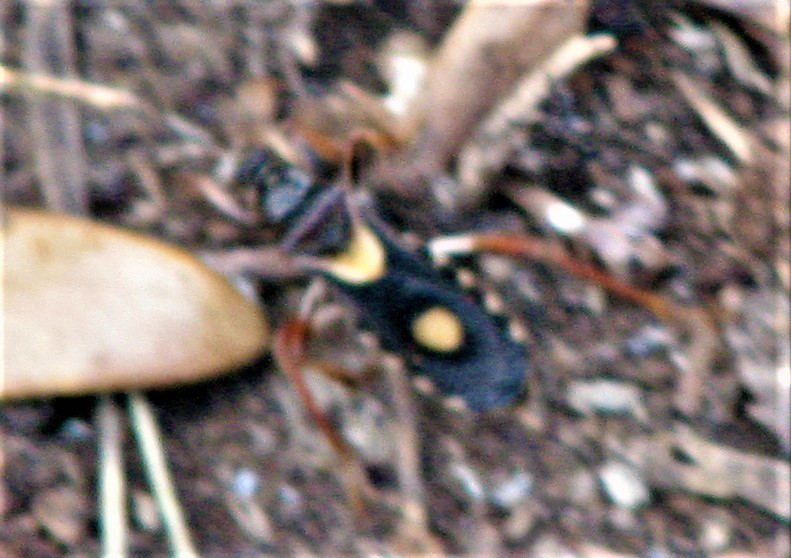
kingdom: Animalia
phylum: Arthropoda
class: Insecta
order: Hemiptera
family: Reduviidae
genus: Rasahus
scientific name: Rasahus hamatus
